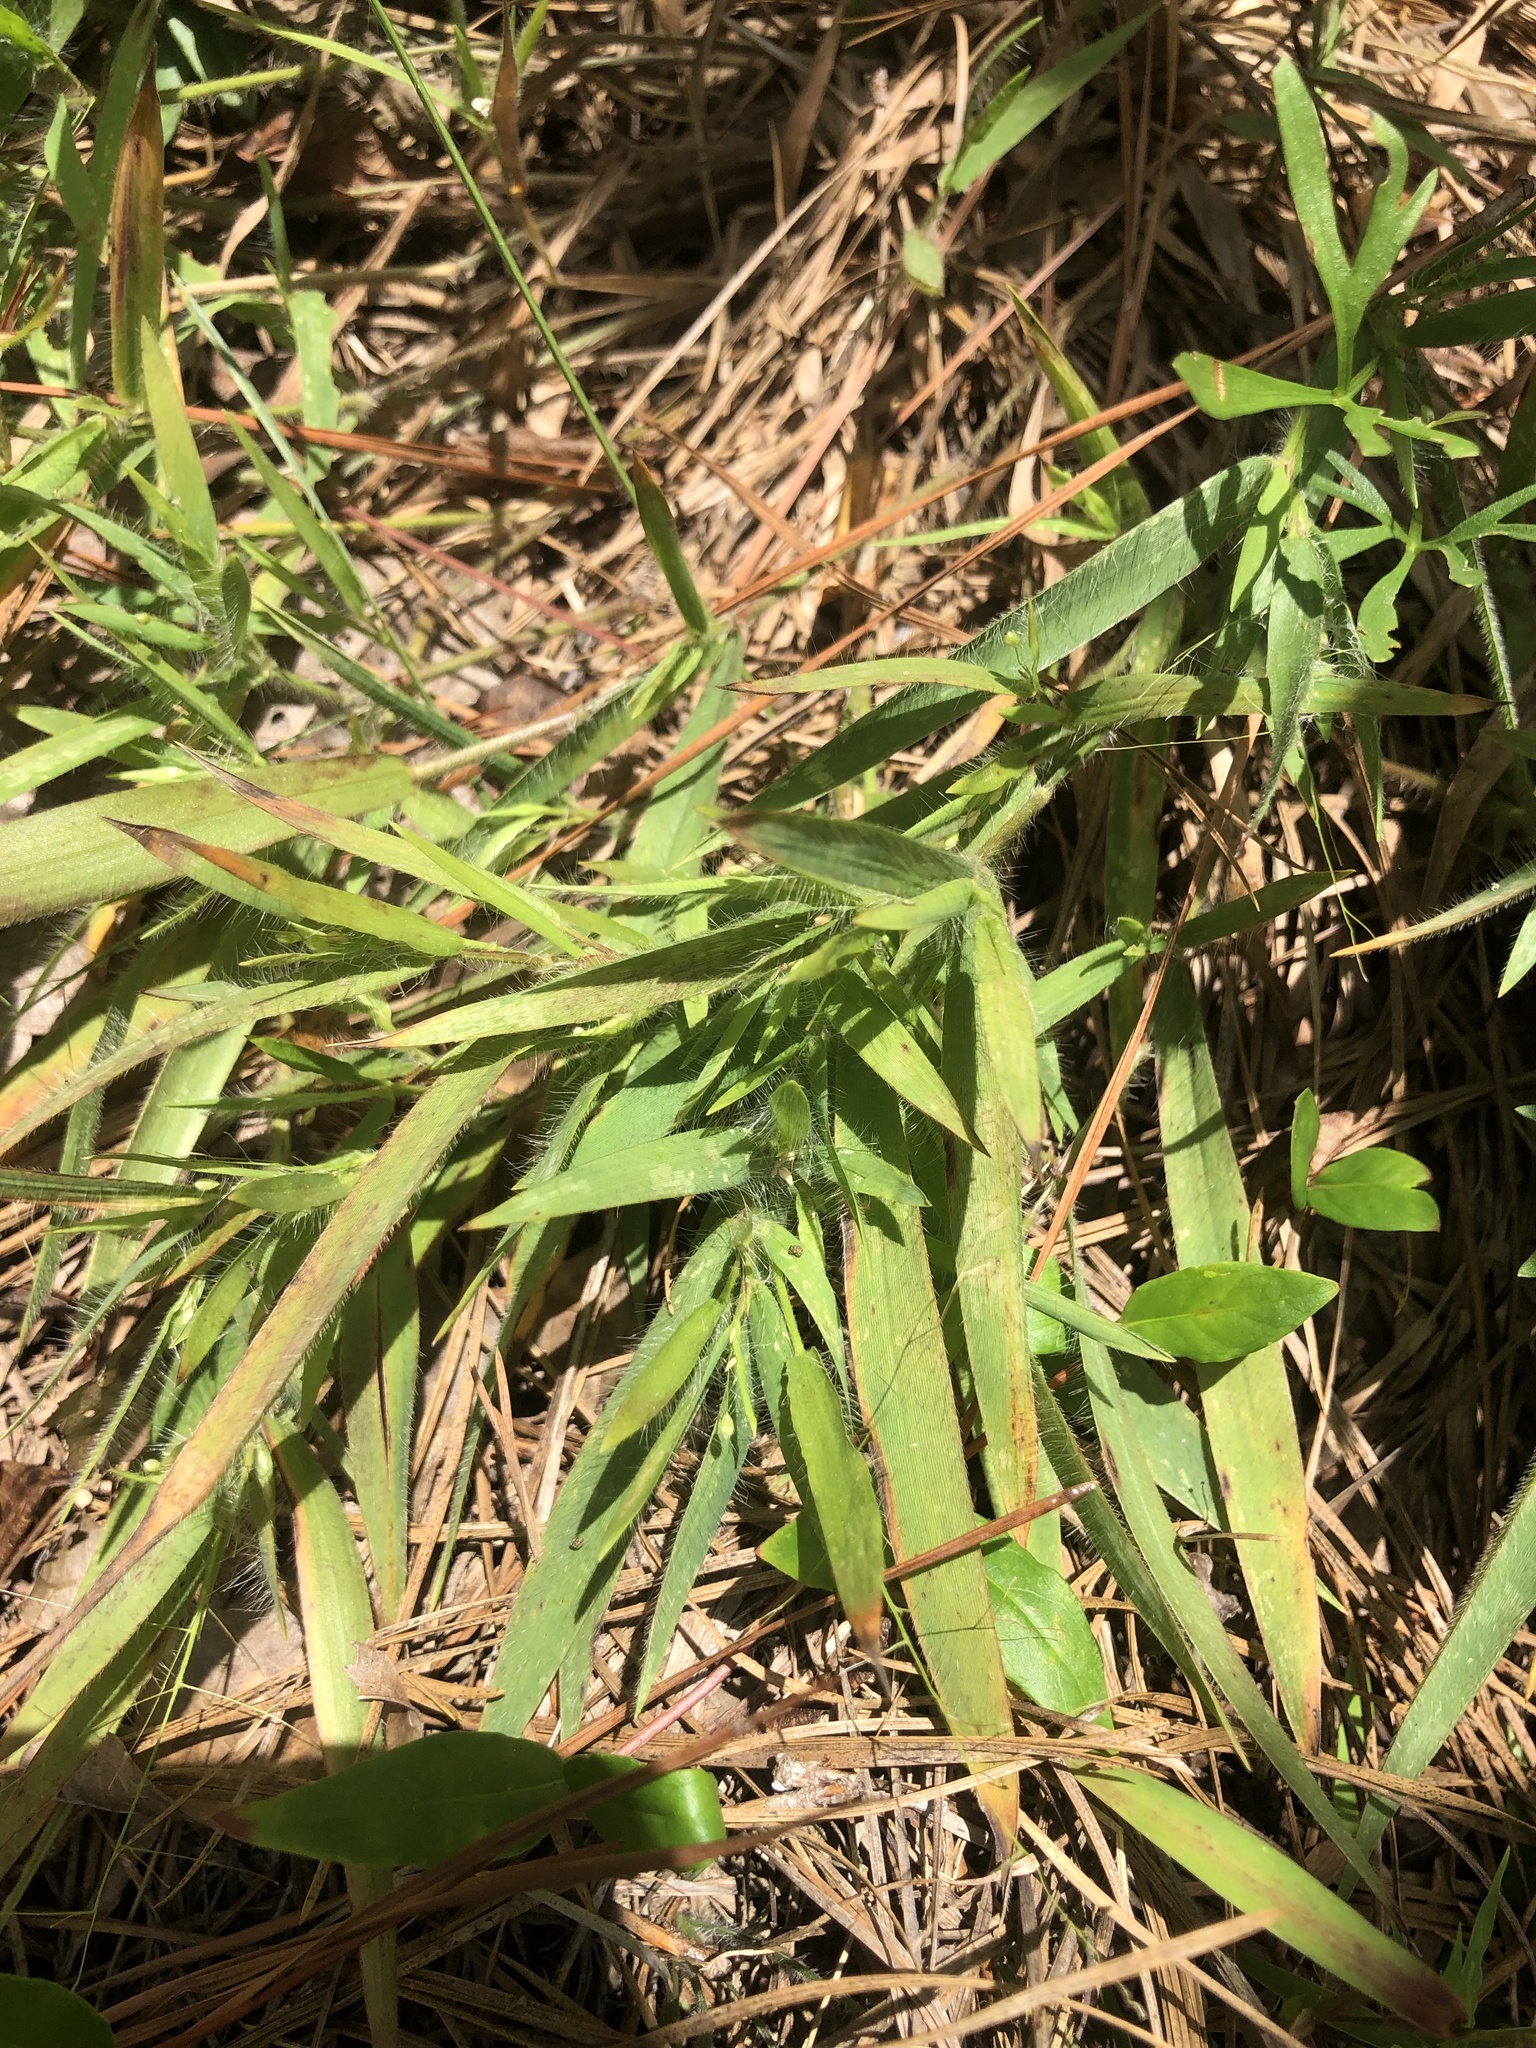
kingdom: Plantae
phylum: Tracheophyta
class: Liliopsida
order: Poales
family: Poaceae
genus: Dichanthelium
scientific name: Dichanthelium acuminatum
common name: Hairy panic grass
